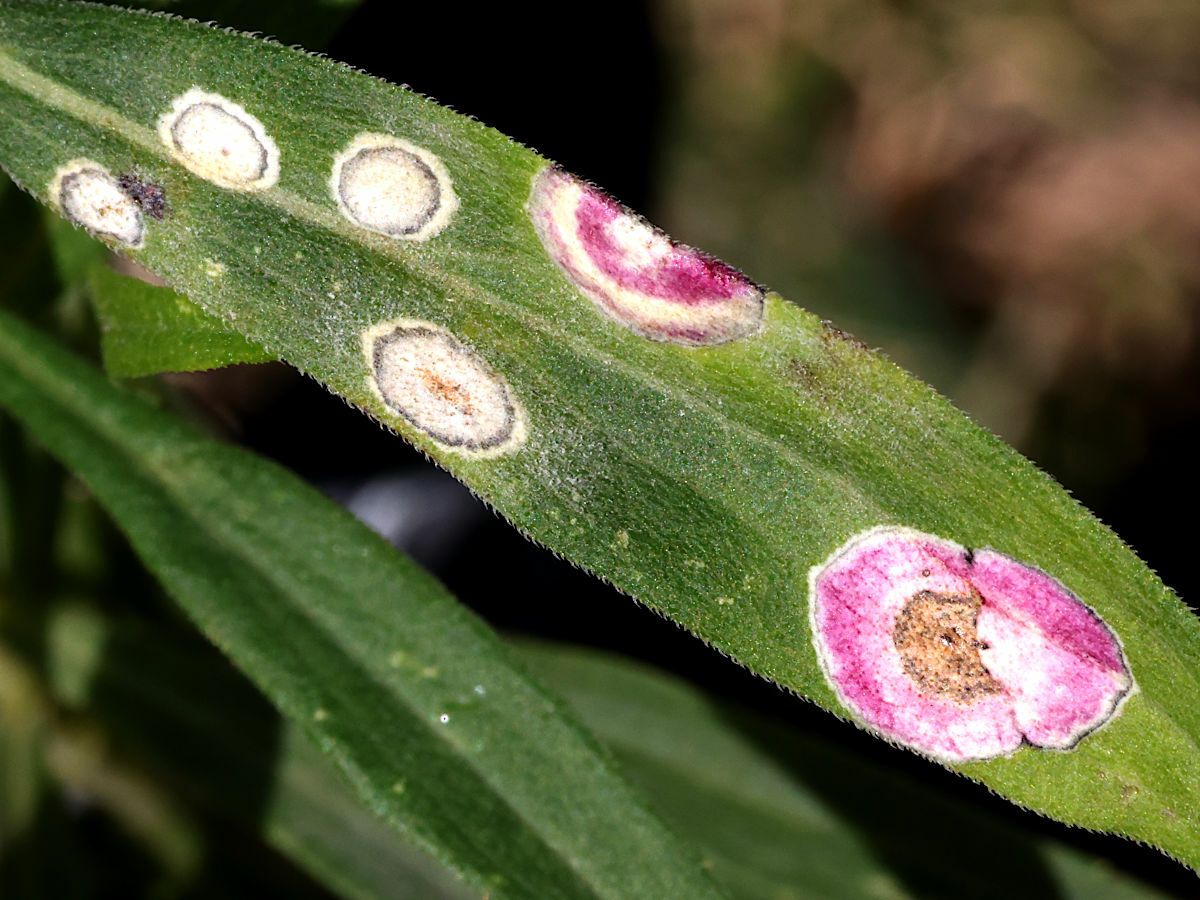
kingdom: Animalia
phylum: Arthropoda
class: Insecta
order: Diptera
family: Cecidomyiidae
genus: Asteromyia
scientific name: Asteromyia carbonifera
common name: Carbonifera goldenrod gall midge
